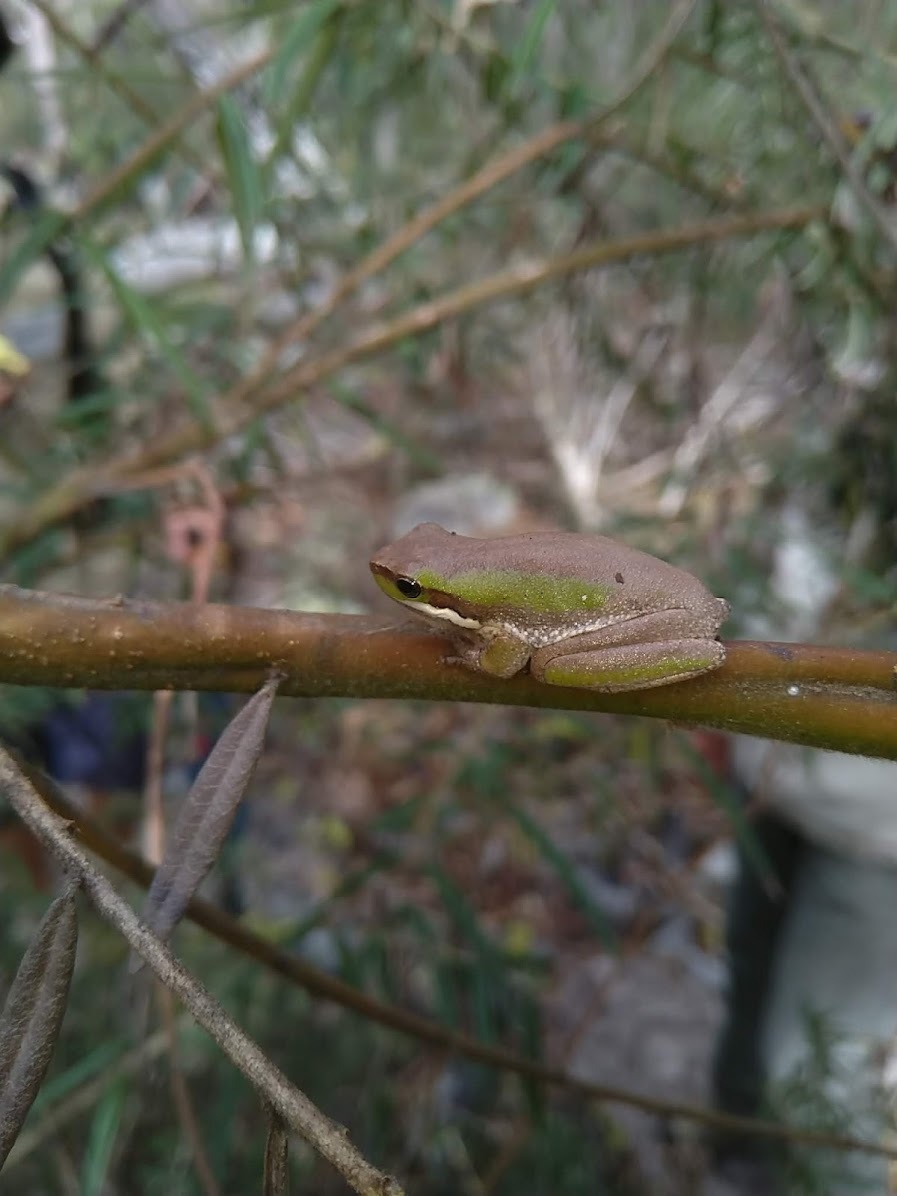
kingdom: Animalia
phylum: Chordata
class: Amphibia
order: Anura
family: Pelodryadidae
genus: Litoria
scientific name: Litoria fallax
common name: Eastern dwarf treefrog
